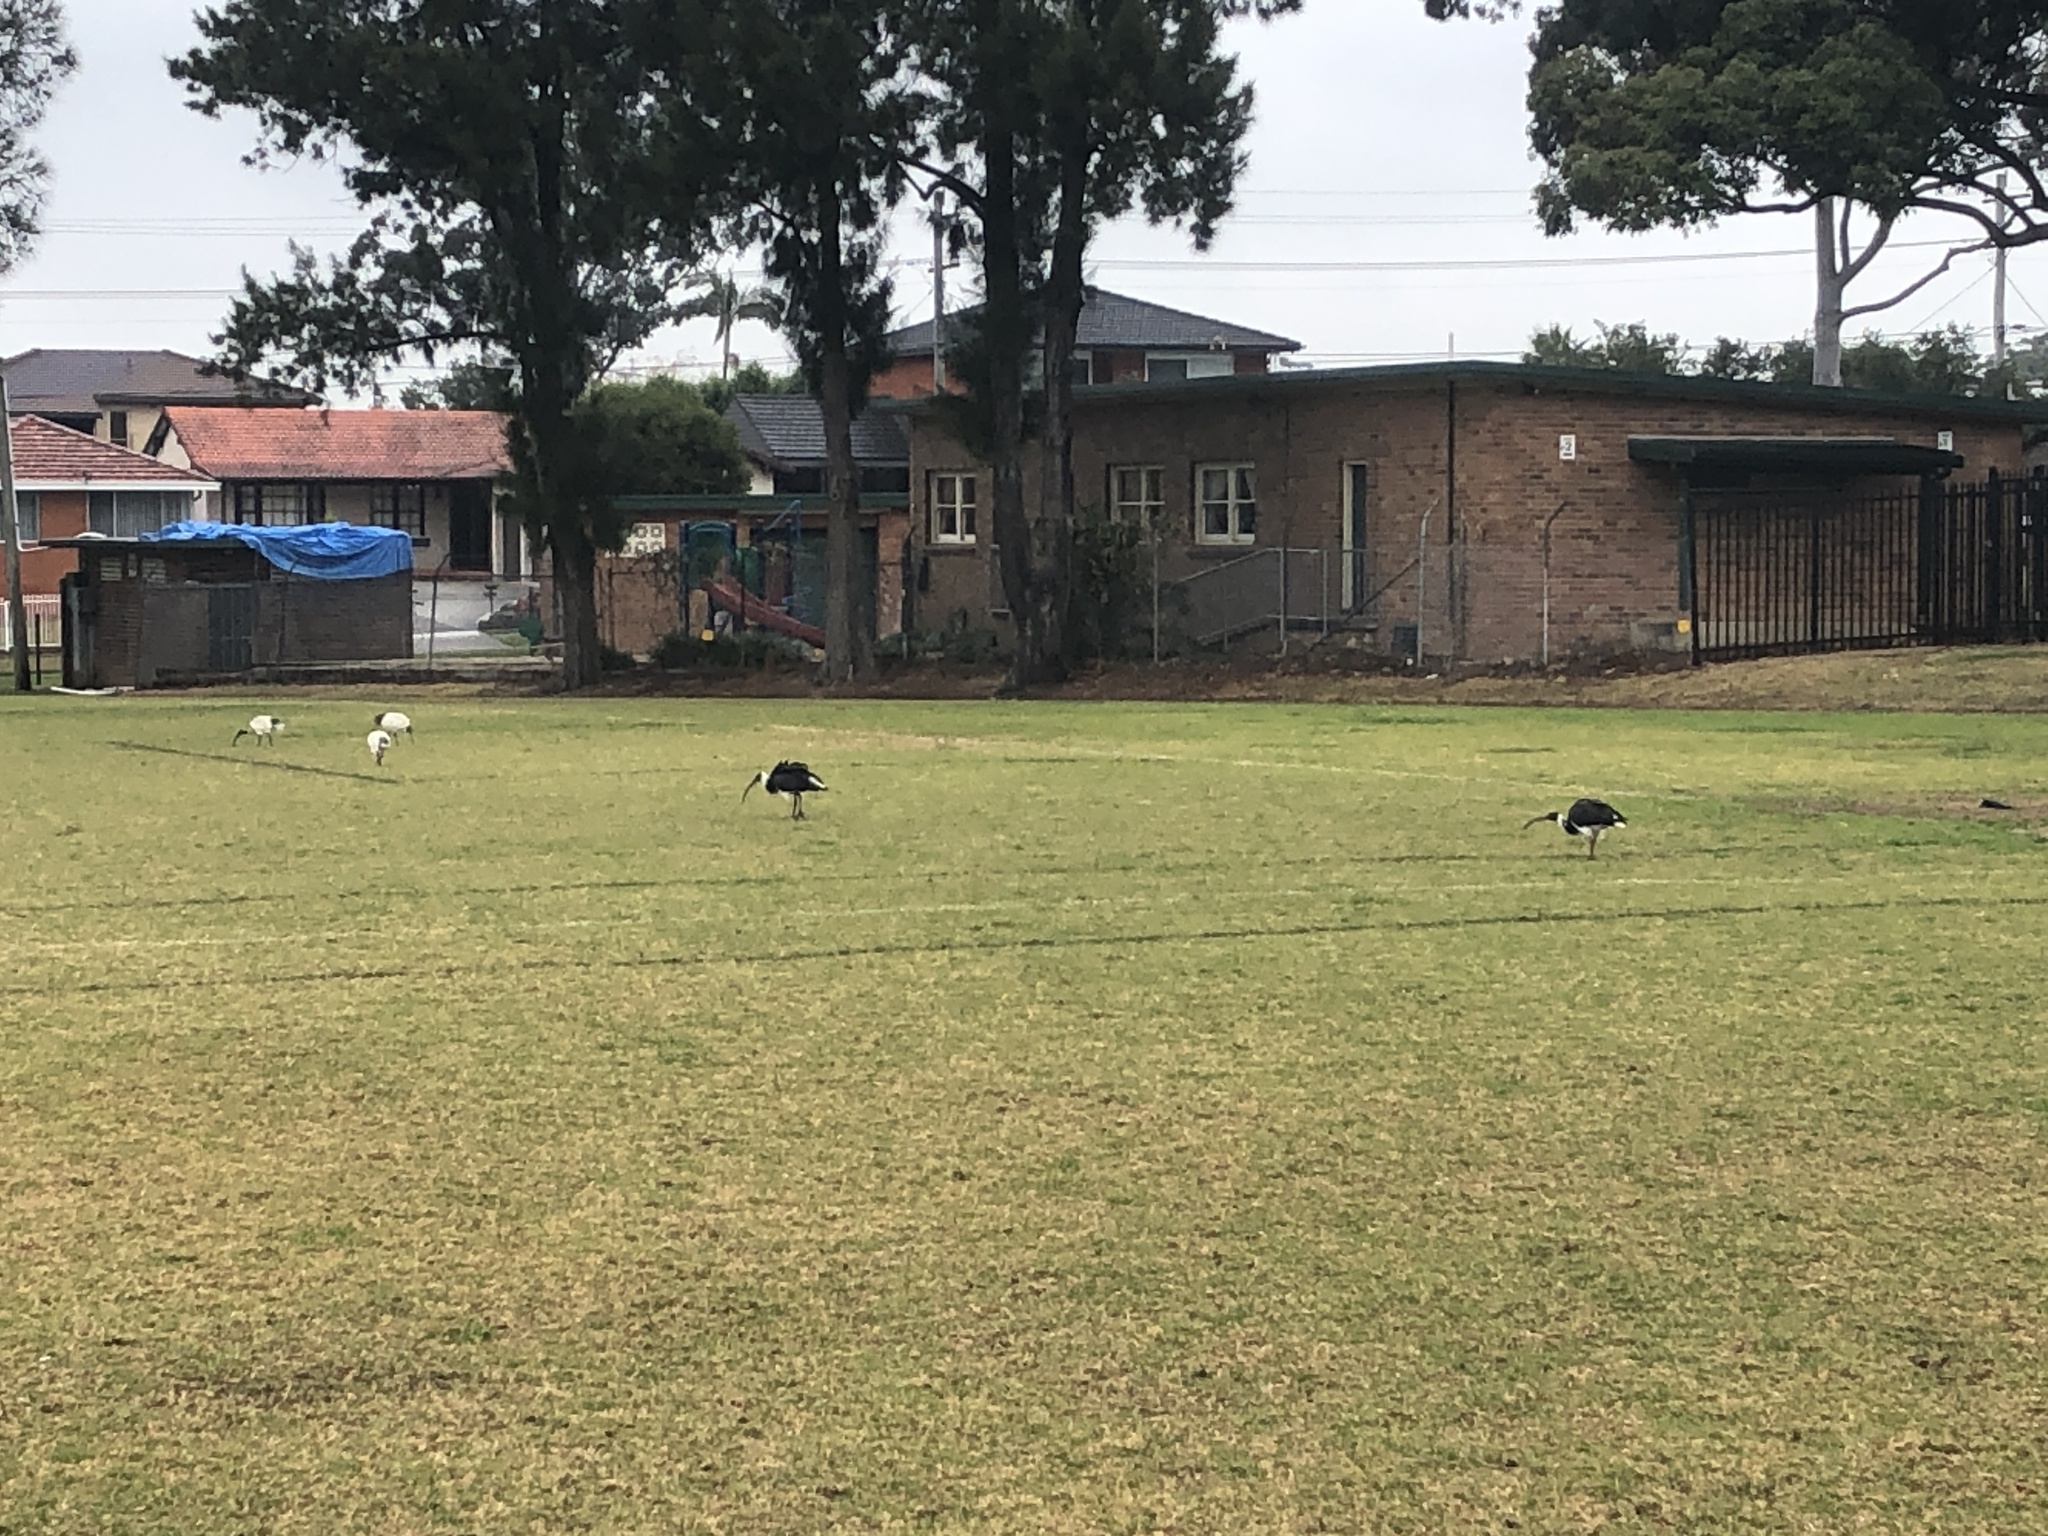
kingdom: Animalia
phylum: Chordata
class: Aves
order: Pelecaniformes
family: Threskiornithidae
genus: Threskiornis
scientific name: Threskiornis spinicollis
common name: Straw-necked ibis
